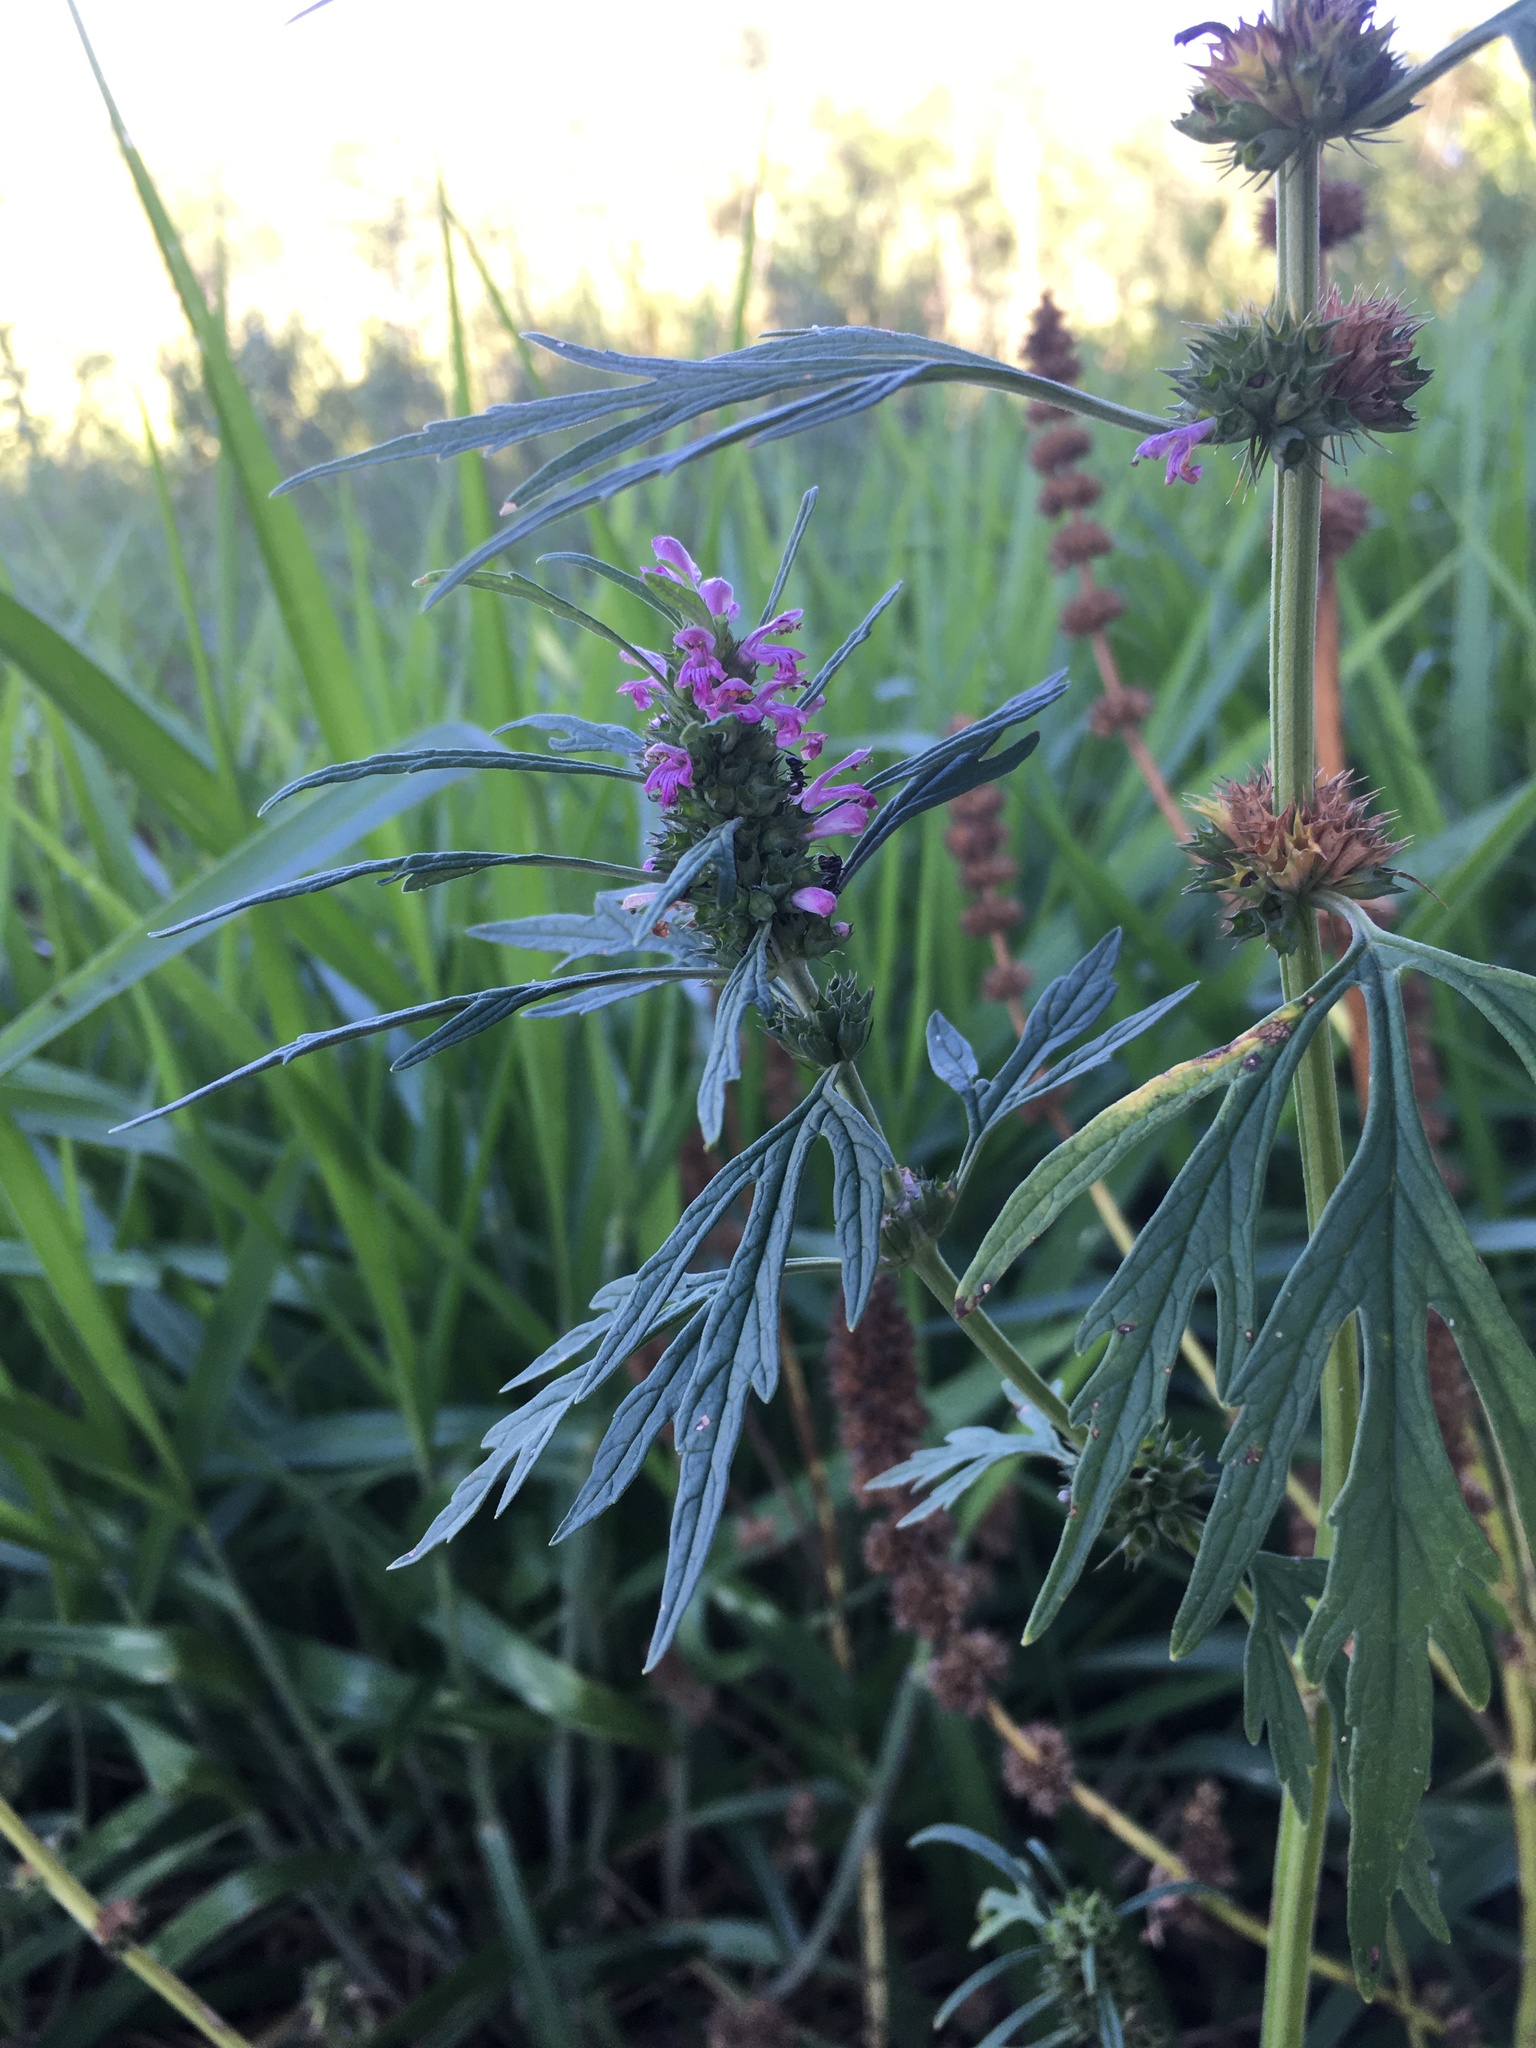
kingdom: Plantae
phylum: Tracheophyta
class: Magnoliopsida
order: Lamiales
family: Lamiaceae
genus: Leonurus
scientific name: Leonurus japonicus
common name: Honeyweed
